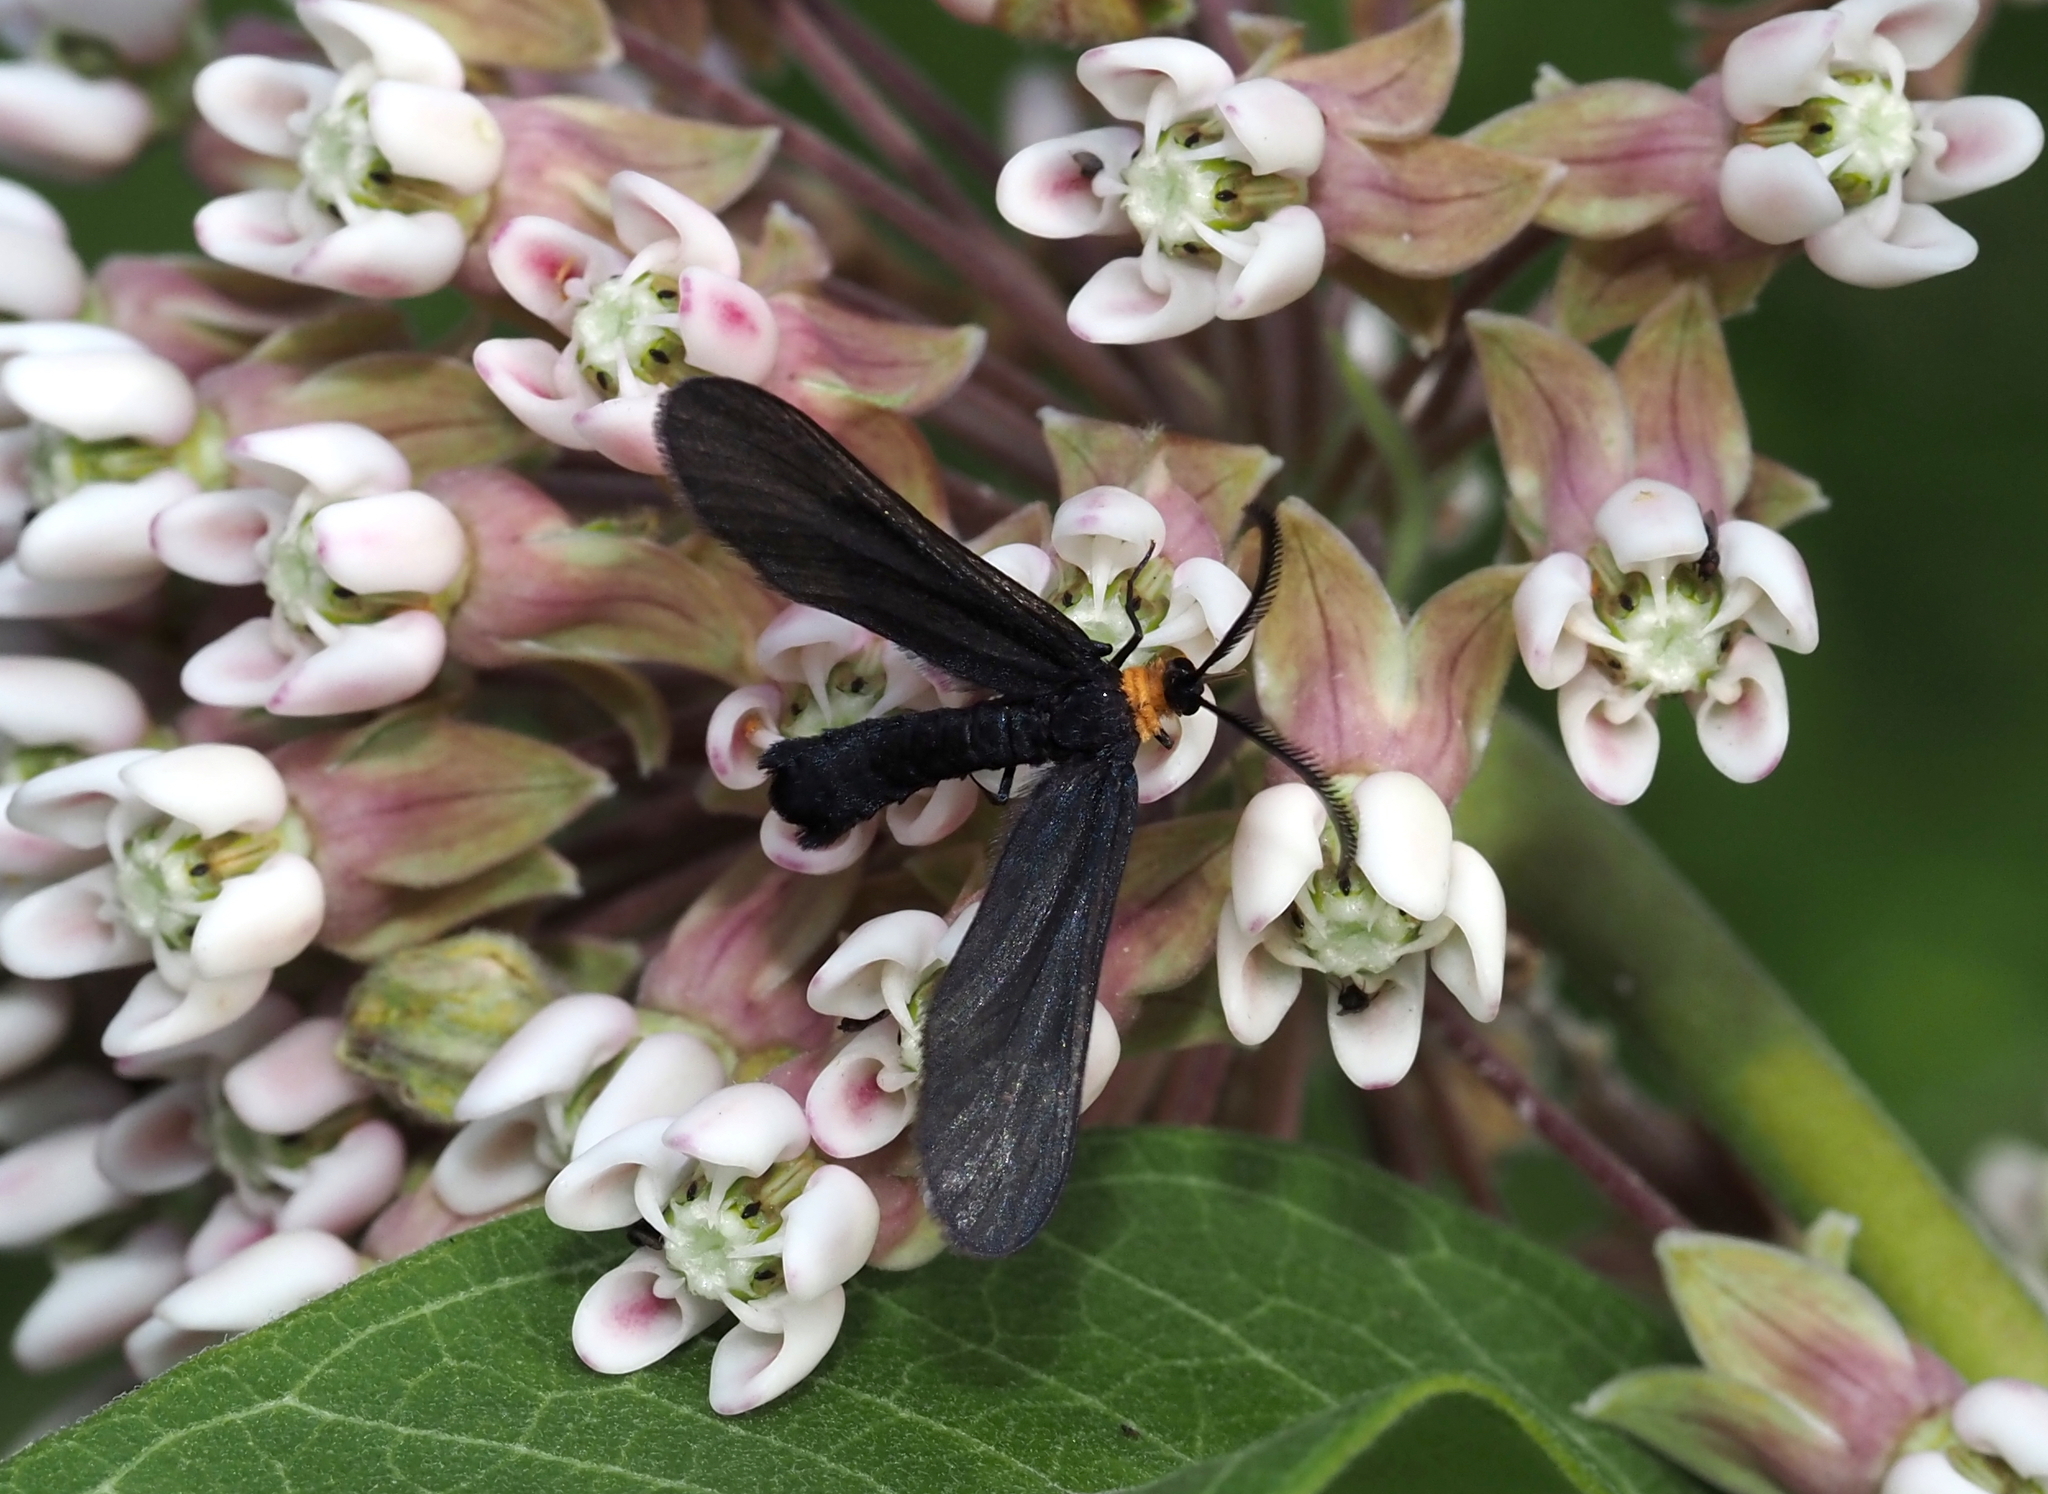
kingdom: Animalia
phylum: Arthropoda
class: Insecta
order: Lepidoptera
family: Zygaenidae
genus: Harrisina
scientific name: Harrisina americana
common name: Grapeleaf skeletonizer moth
